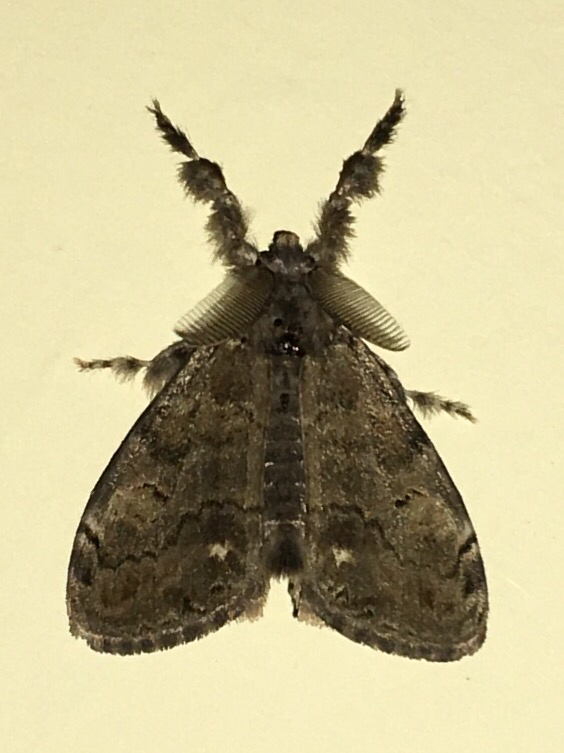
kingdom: Animalia
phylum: Arthropoda
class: Insecta
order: Lepidoptera
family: Erebidae
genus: Orgyia
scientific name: Orgyia leucostigma
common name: White-marked tussock moth
